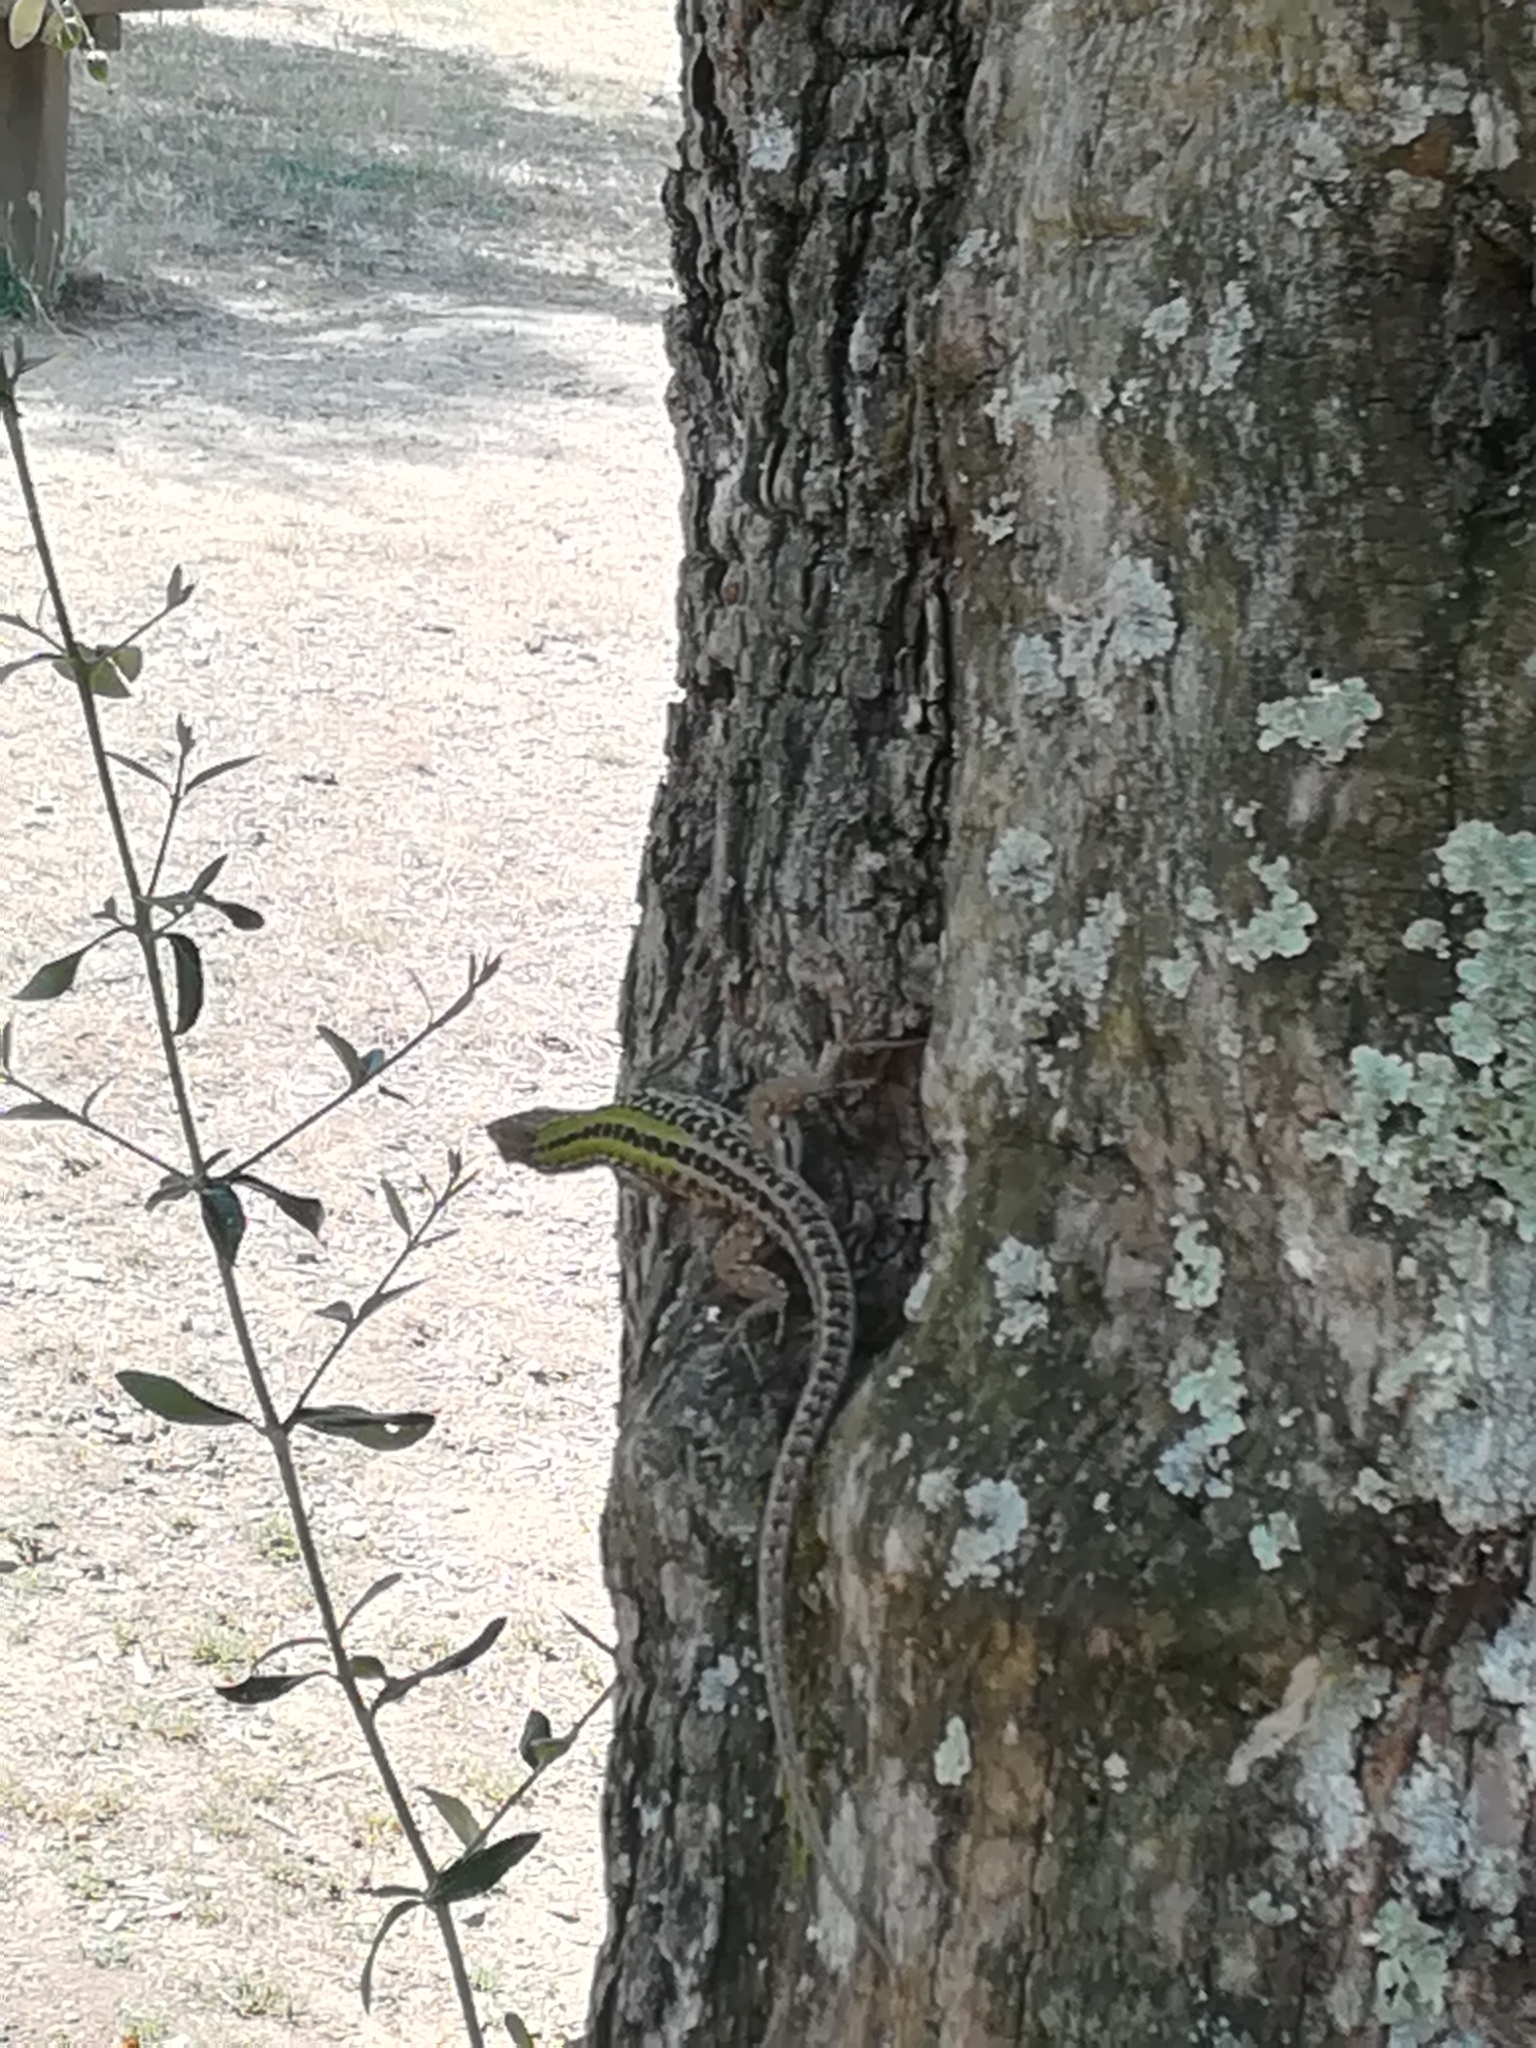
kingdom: Animalia
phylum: Chordata
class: Squamata
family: Lacertidae
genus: Podarcis
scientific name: Podarcis siculus
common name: Italian wall lizard
